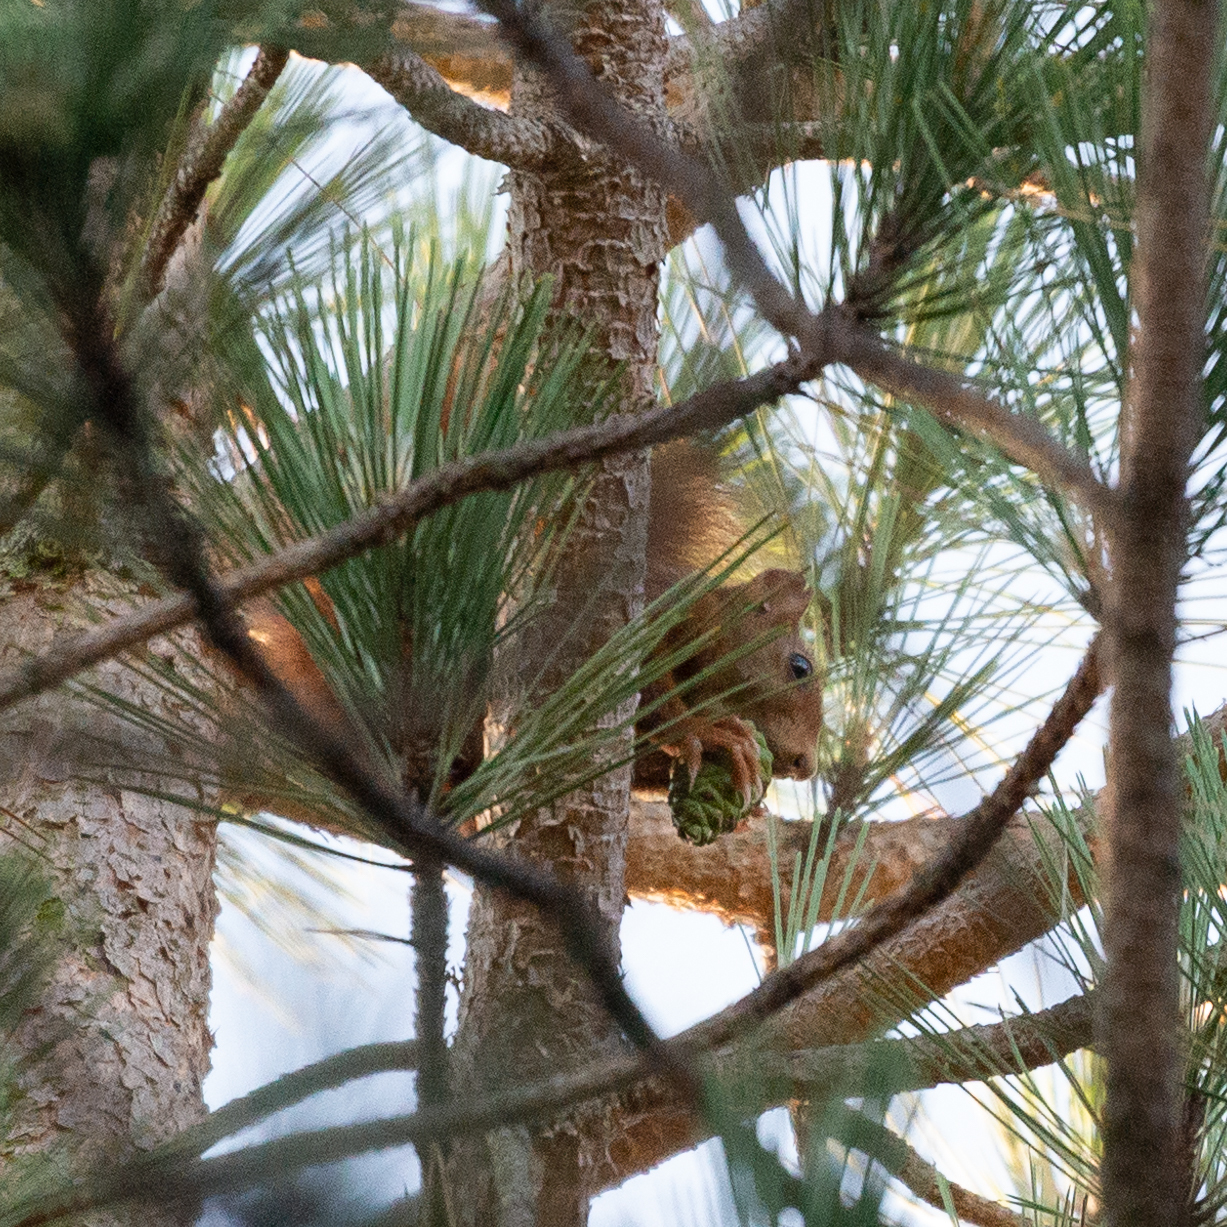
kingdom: Animalia
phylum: Chordata
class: Mammalia
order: Rodentia
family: Sciuridae
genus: Sciurus
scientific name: Sciurus vulgaris
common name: Eurasian red squirrel
